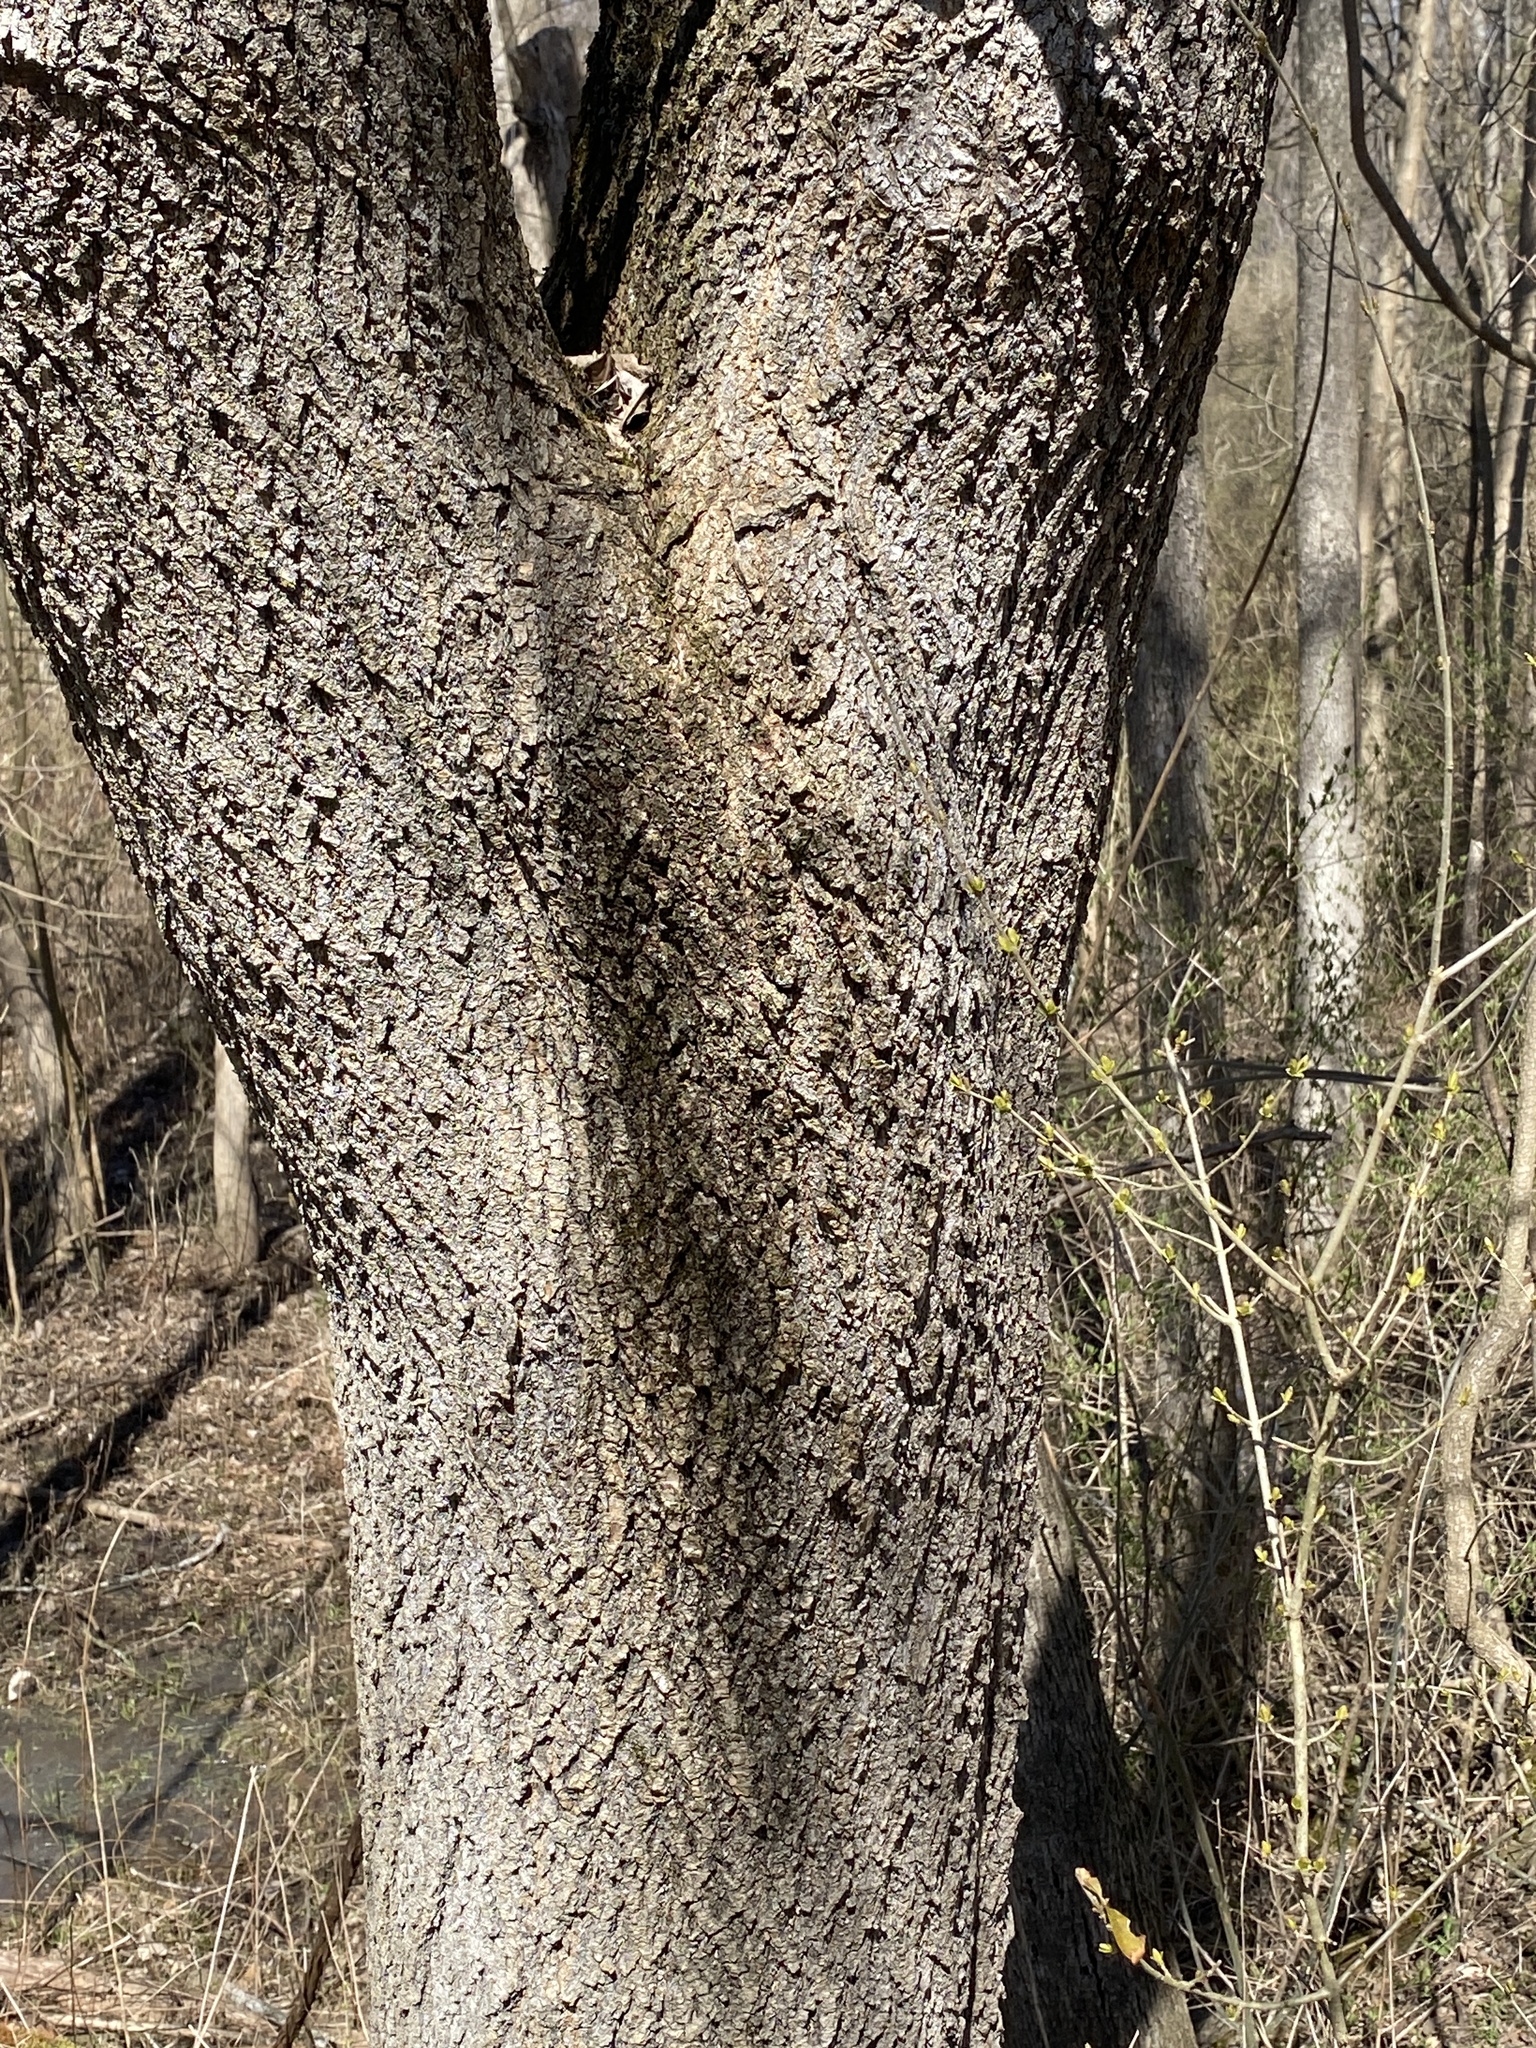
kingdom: Plantae
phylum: Tracheophyta
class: Magnoliopsida
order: Sapindales
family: Sapindaceae
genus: Acer
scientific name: Acer negundo
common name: Ashleaf maple
